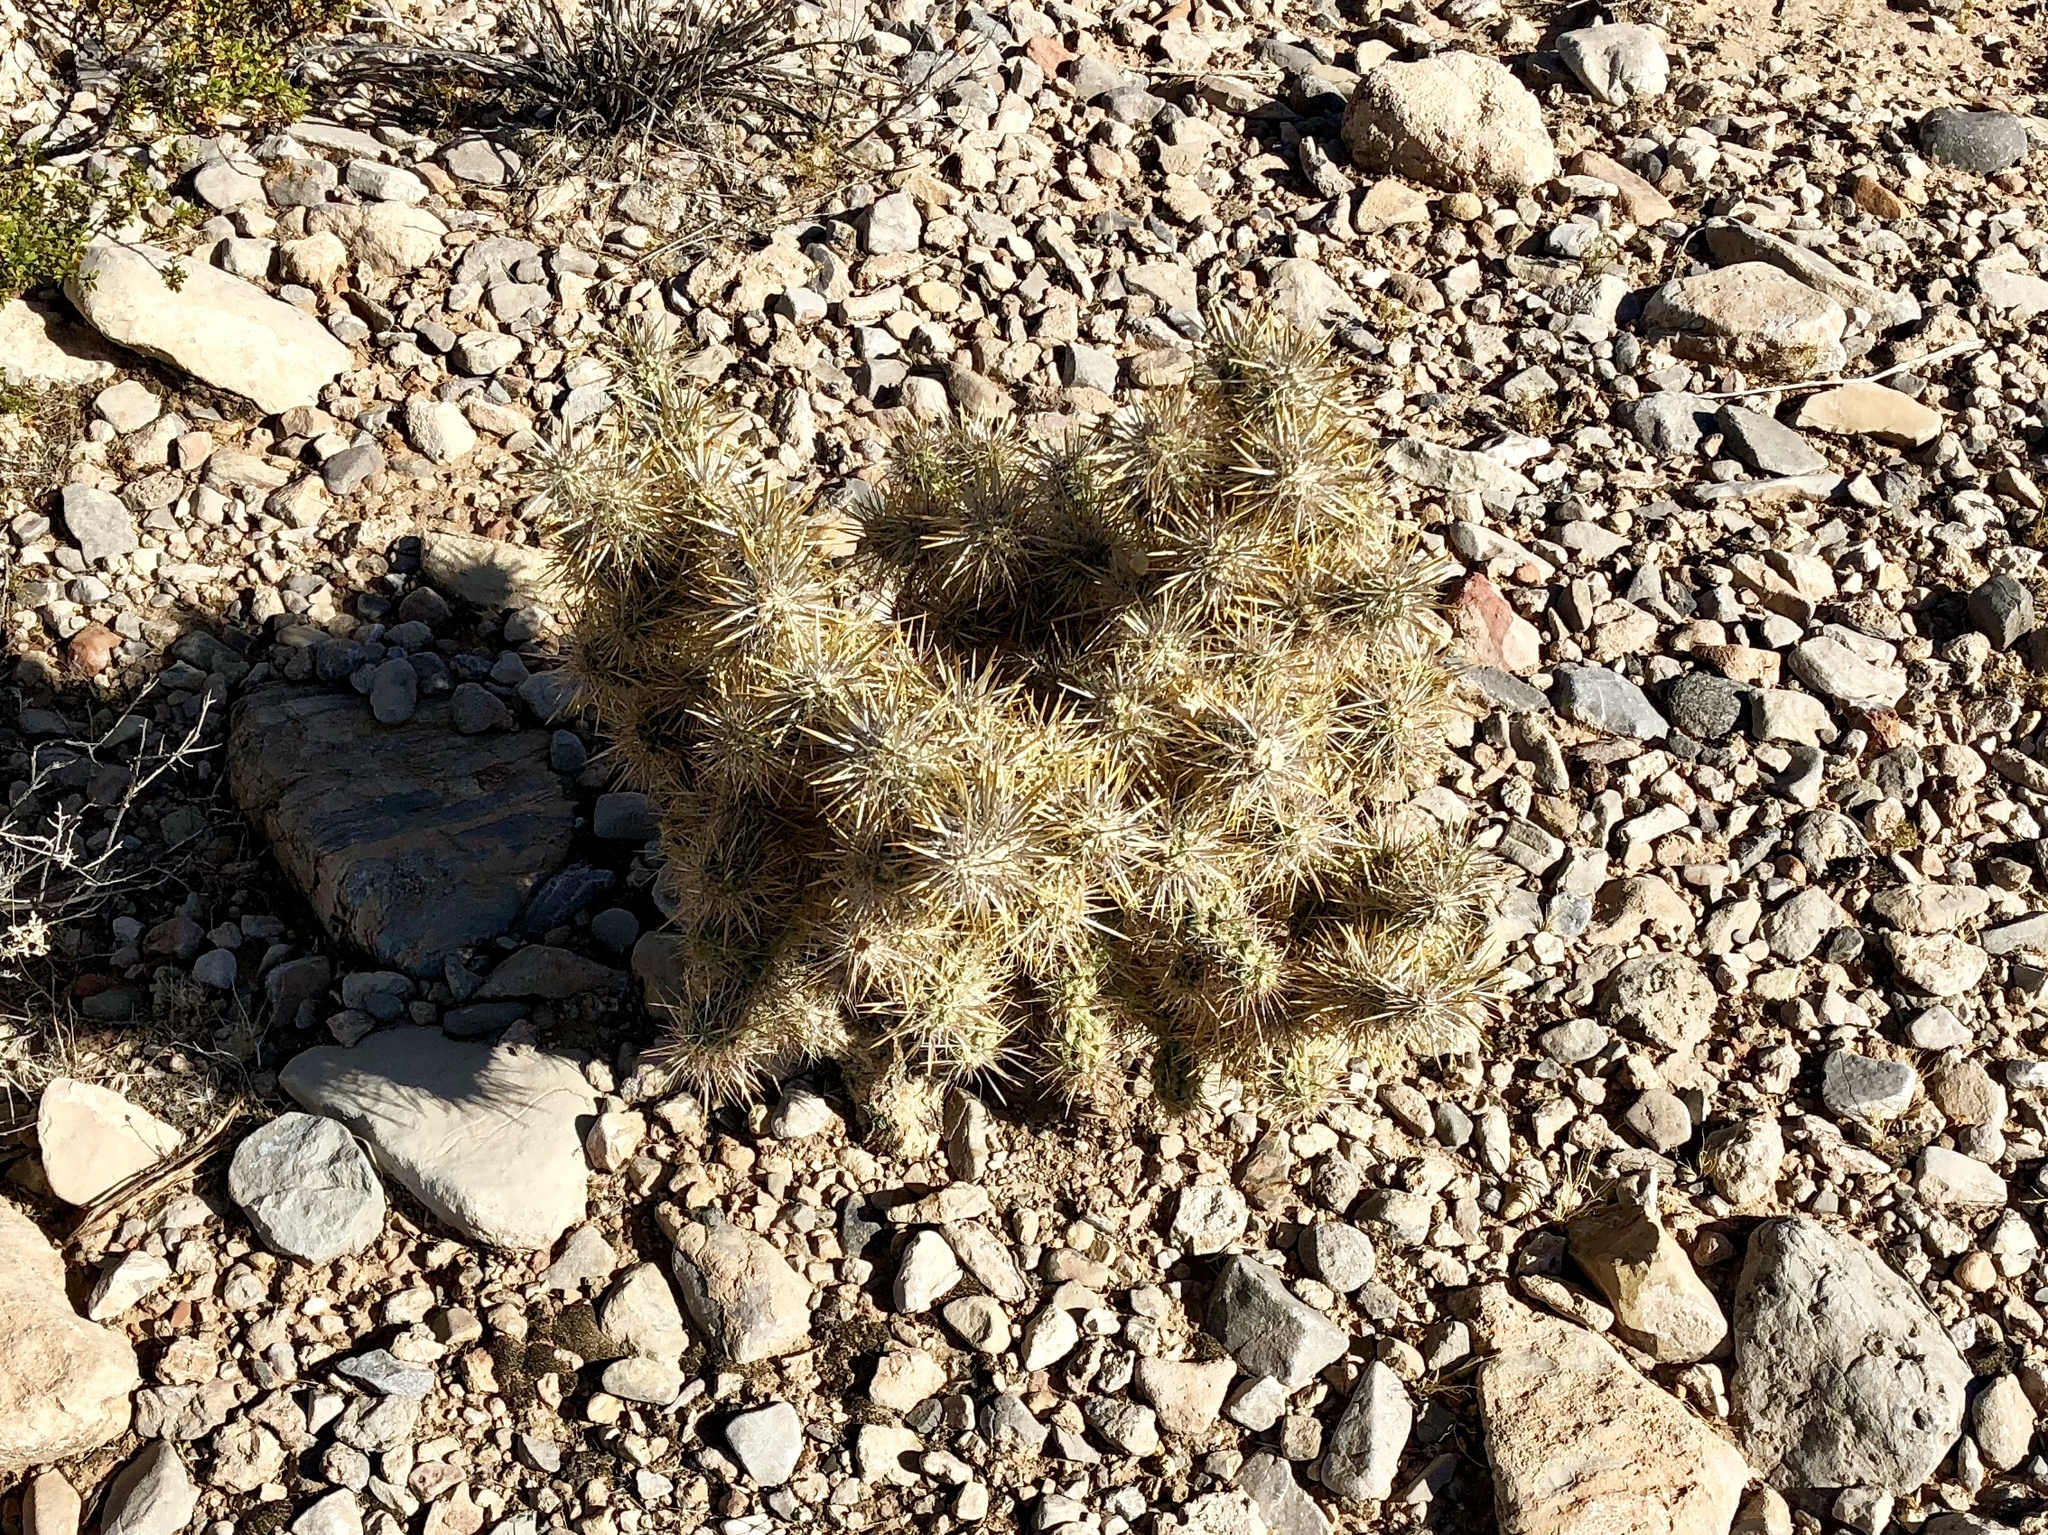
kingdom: Plantae
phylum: Tracheophyta
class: Magnoliopsida
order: Caryophyllales
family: Cactaceae
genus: Cylindropuntia
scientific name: Cylindropuntia echinocarpa
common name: Ground cholla
